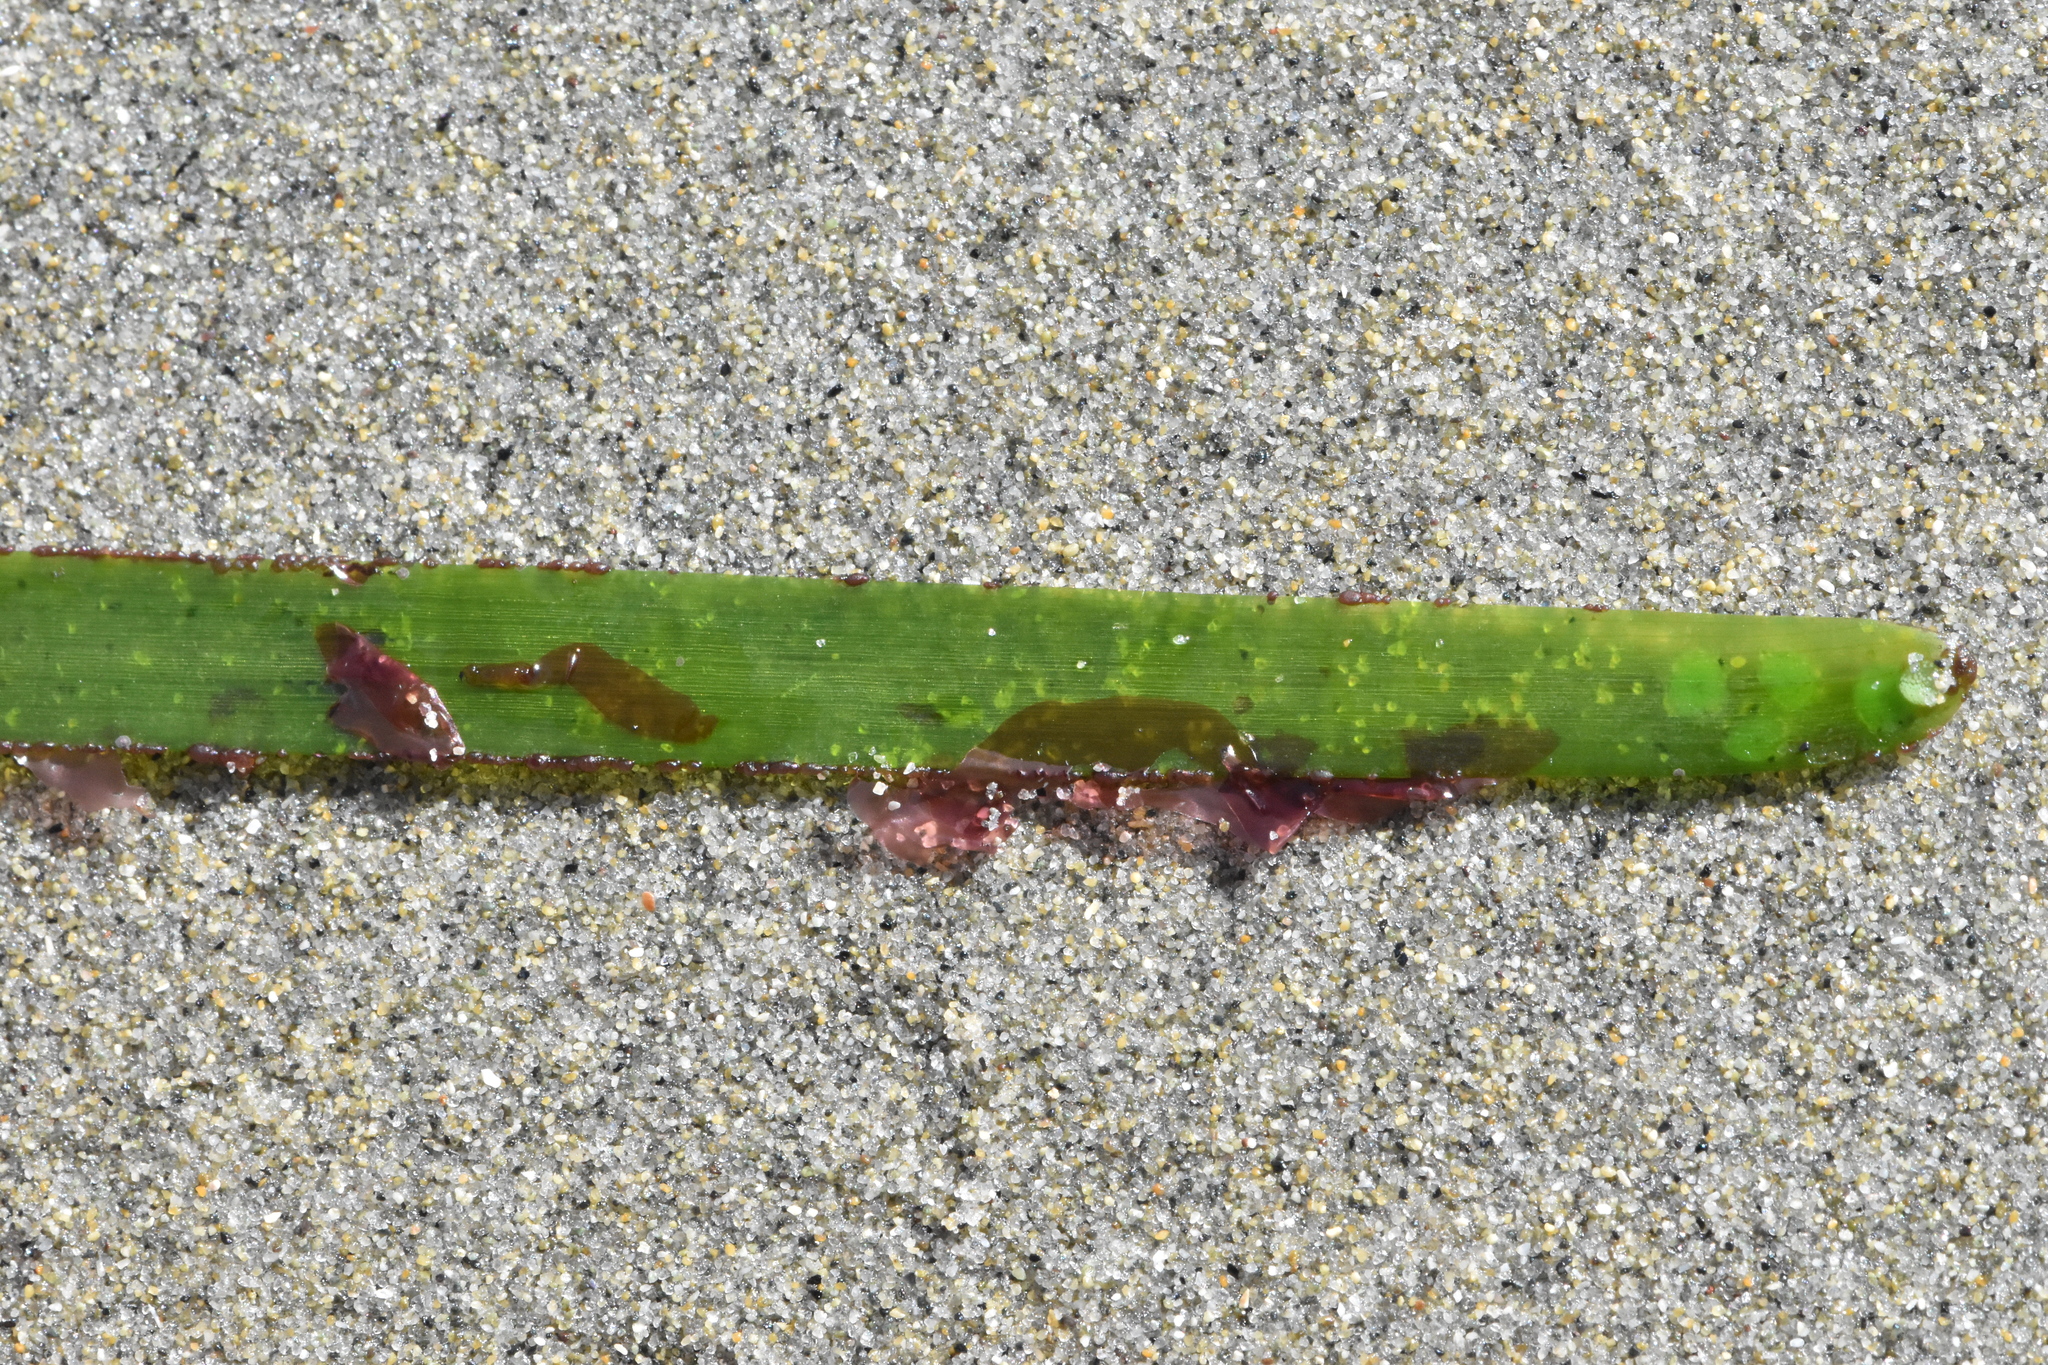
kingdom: Plantae
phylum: Rhodophyta
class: Compsopogonophyceae
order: Erythropeltidales
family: Erythrotrichiaceae
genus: Smithora
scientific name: Smithora naiadum
